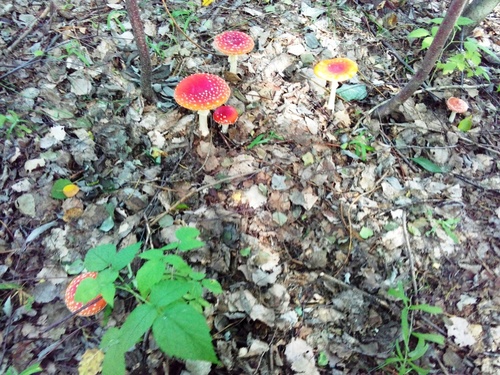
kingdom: Fungi
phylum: Basidiomycota
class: Agaricomycetes
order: Agaricales
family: Amanitaceae
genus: Amanita
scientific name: Amanita muscaria
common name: Fly agaric
